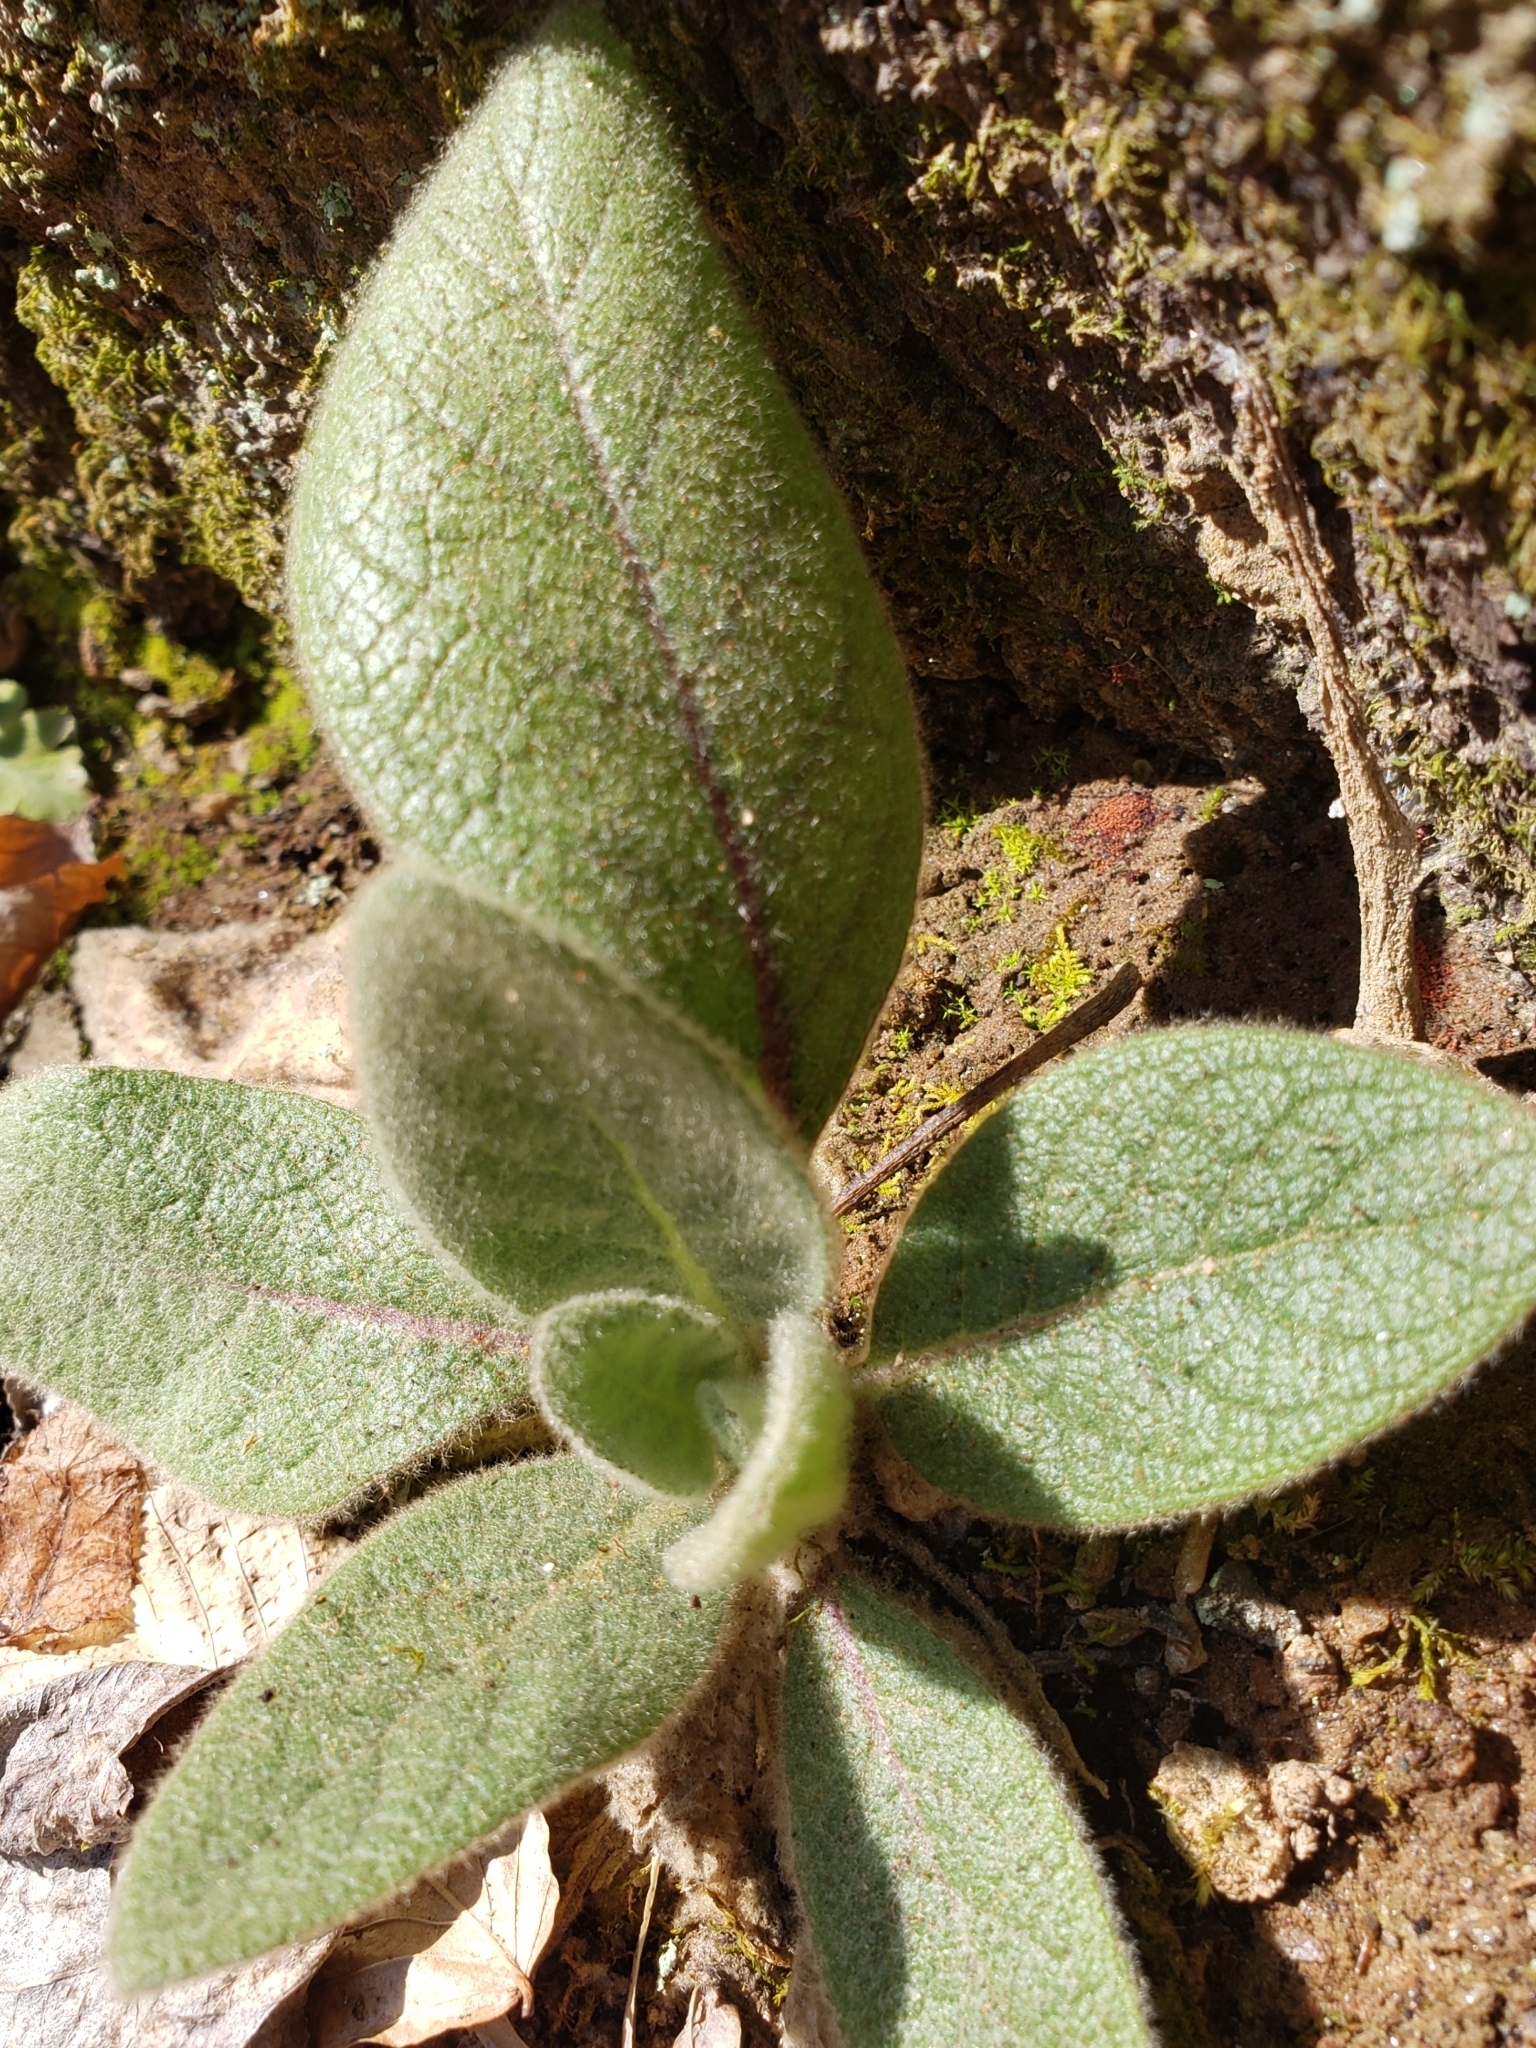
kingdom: Plantae
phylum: Tracheophyta
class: Magnoliopsida
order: Lamiales
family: Scrophulariaceae
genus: Verbascum
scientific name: Verbascum thapsus
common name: Common mullein
